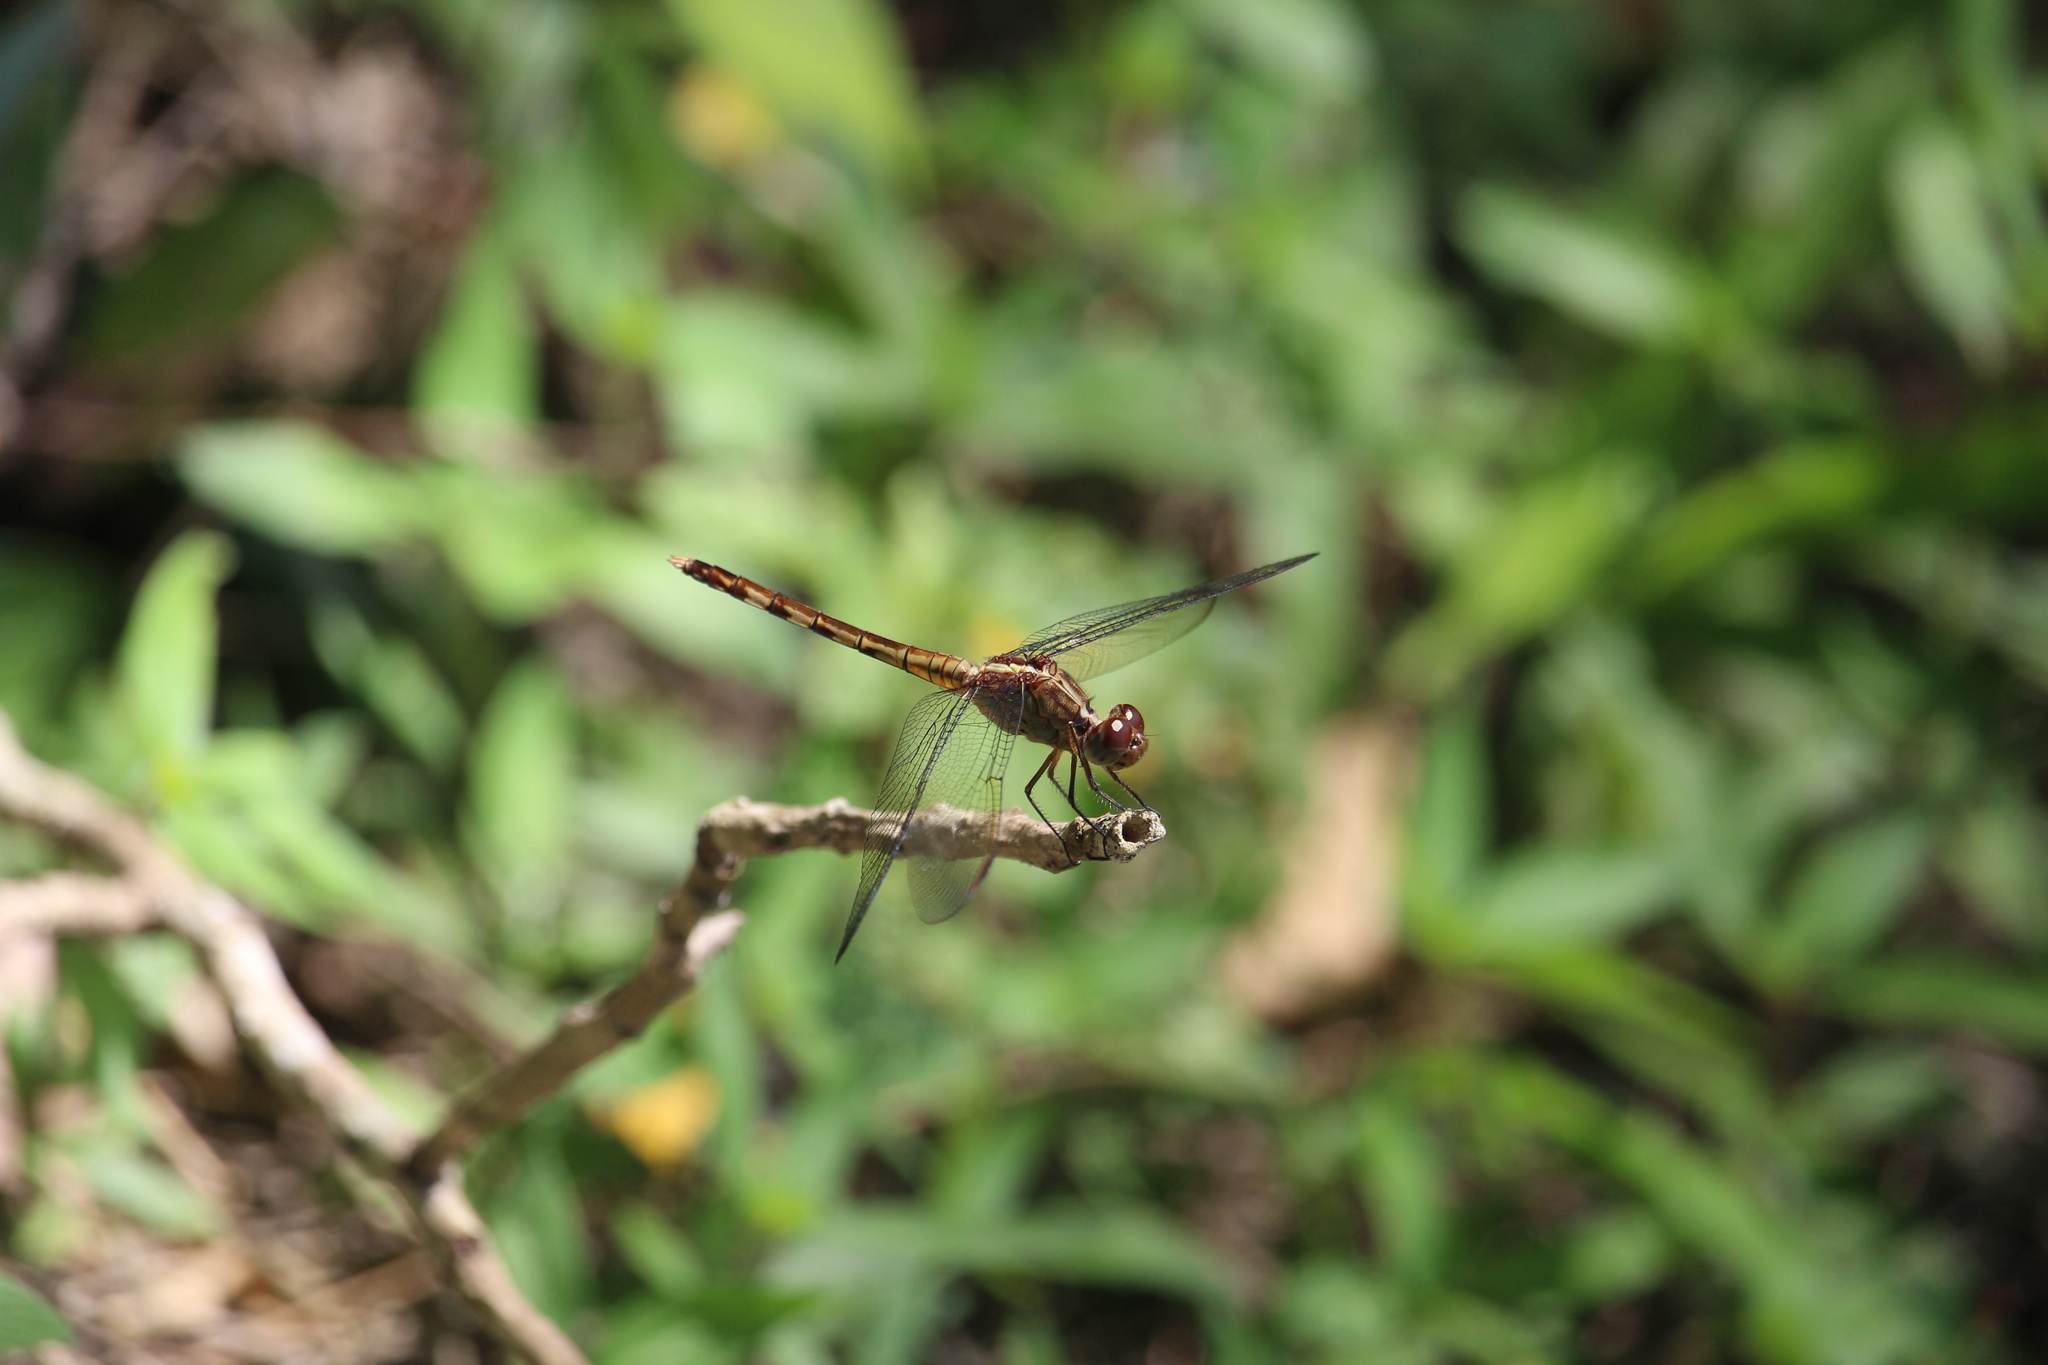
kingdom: Animalia
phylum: Arthropoda
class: Insecta
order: Odonata
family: Libellulidae
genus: Erythrodiplax
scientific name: Erythrodiplax umbrata
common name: Band-winged dragonlet
